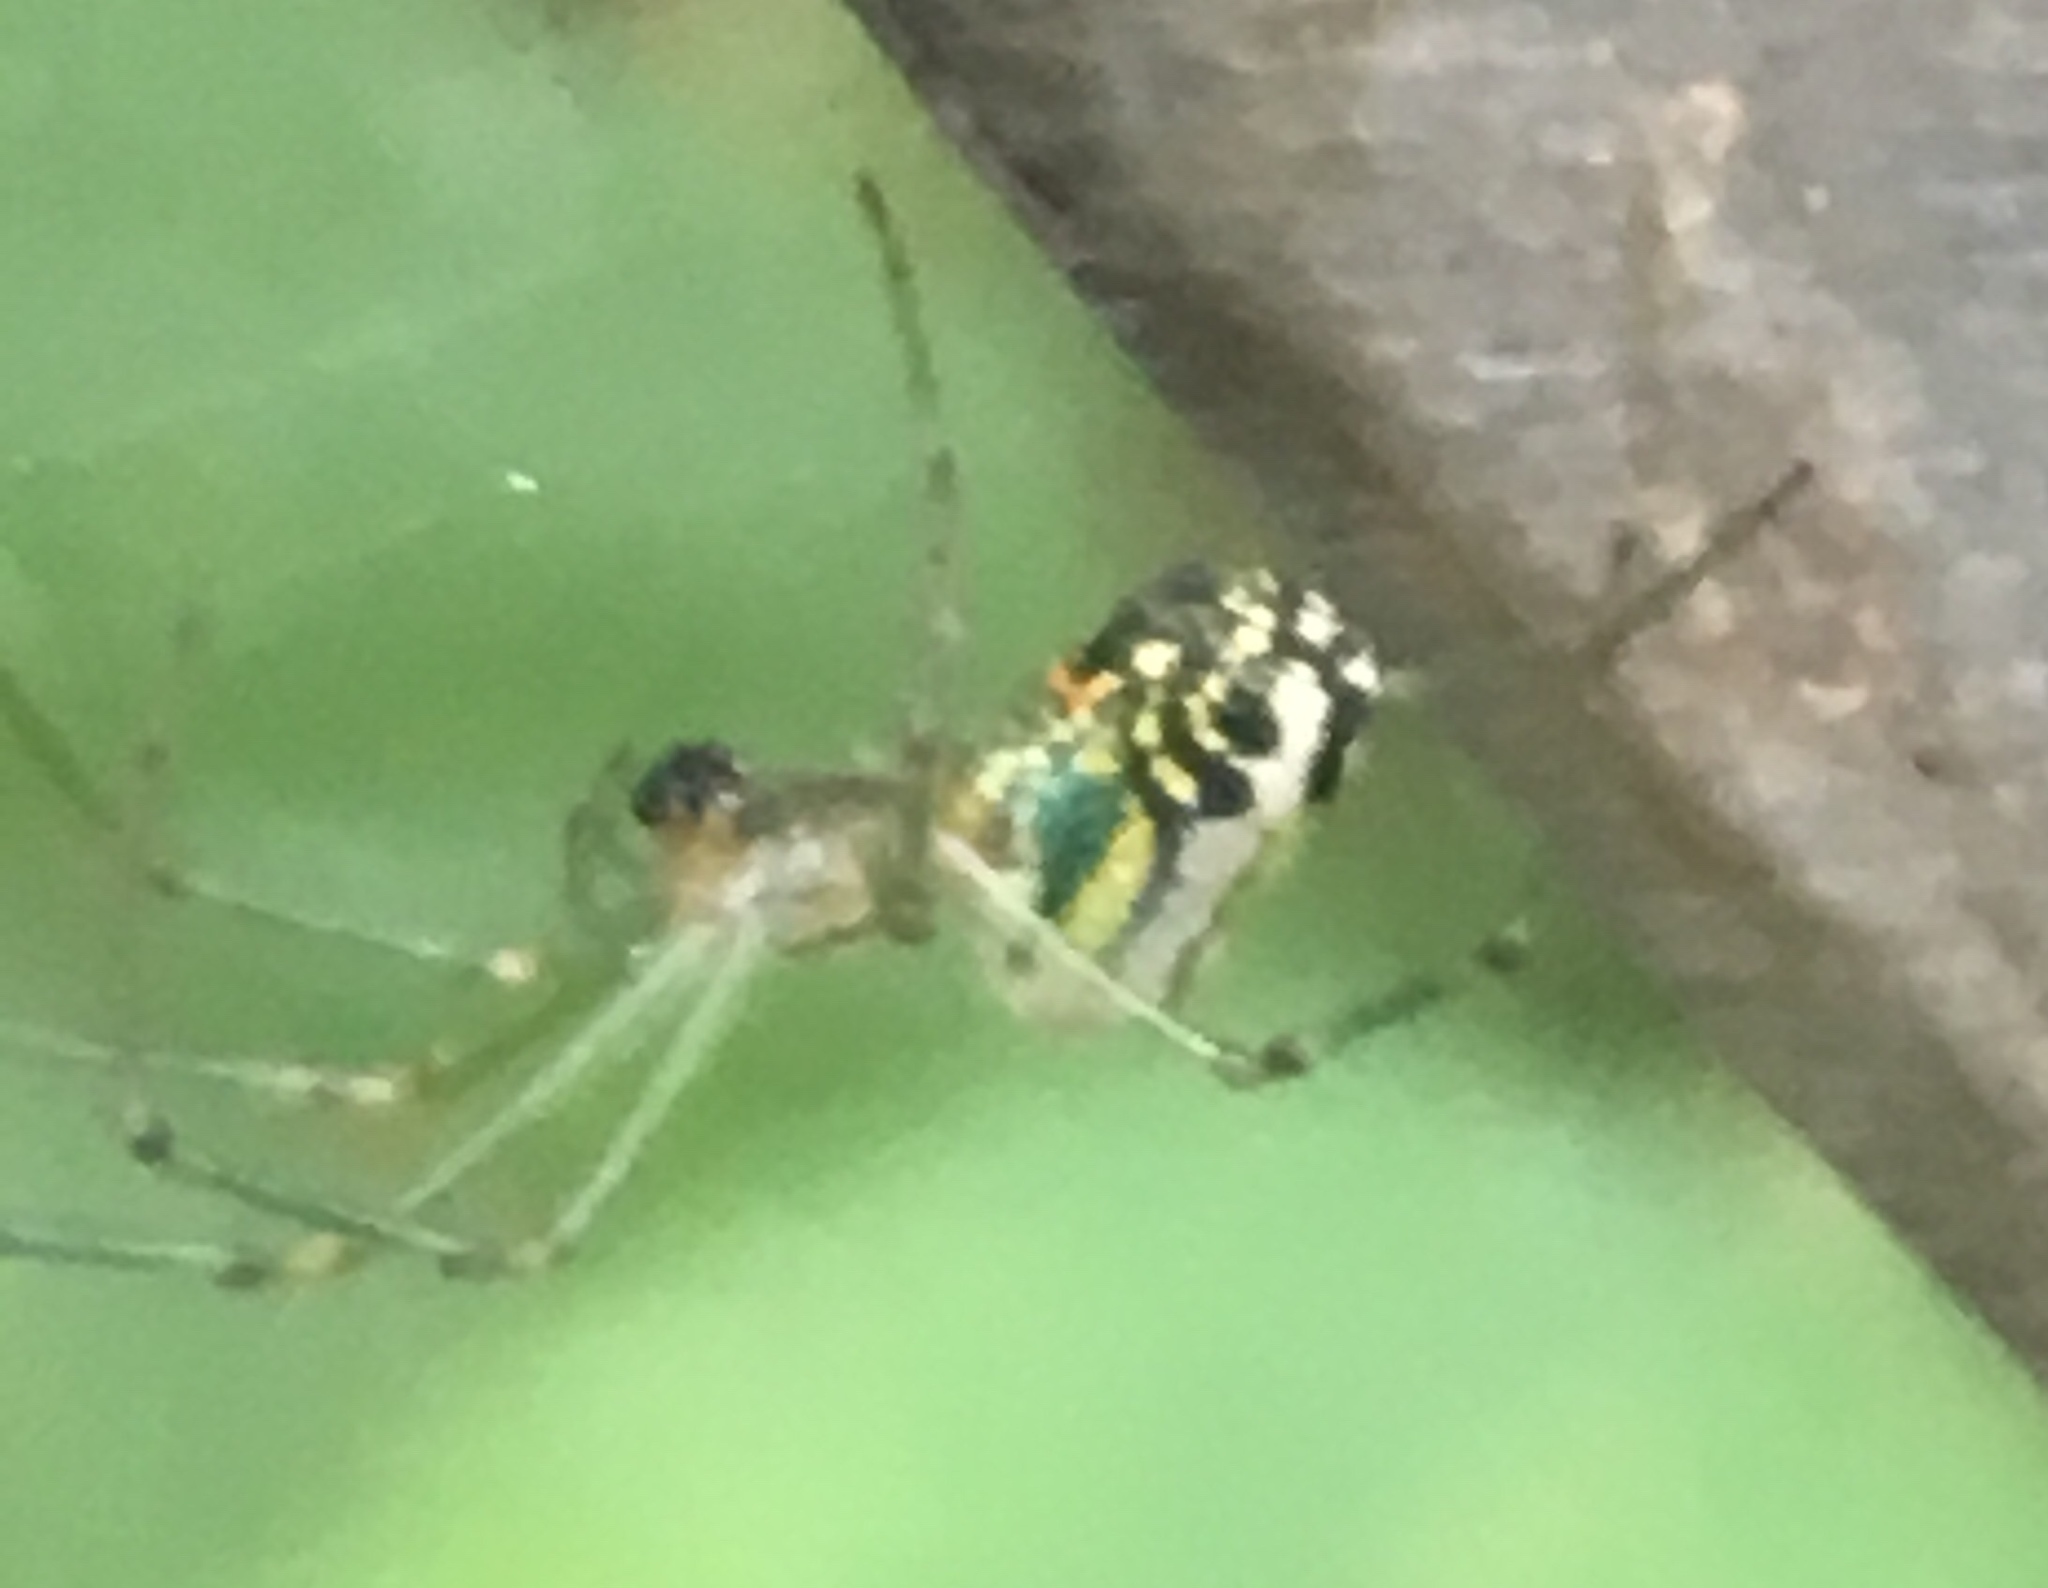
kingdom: Animalia
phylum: Arthropoda
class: Arachnida
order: Araneae
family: Tetragnathidae
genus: Leucauge
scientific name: Leucauge venusta
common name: Longjawed orb weavers
